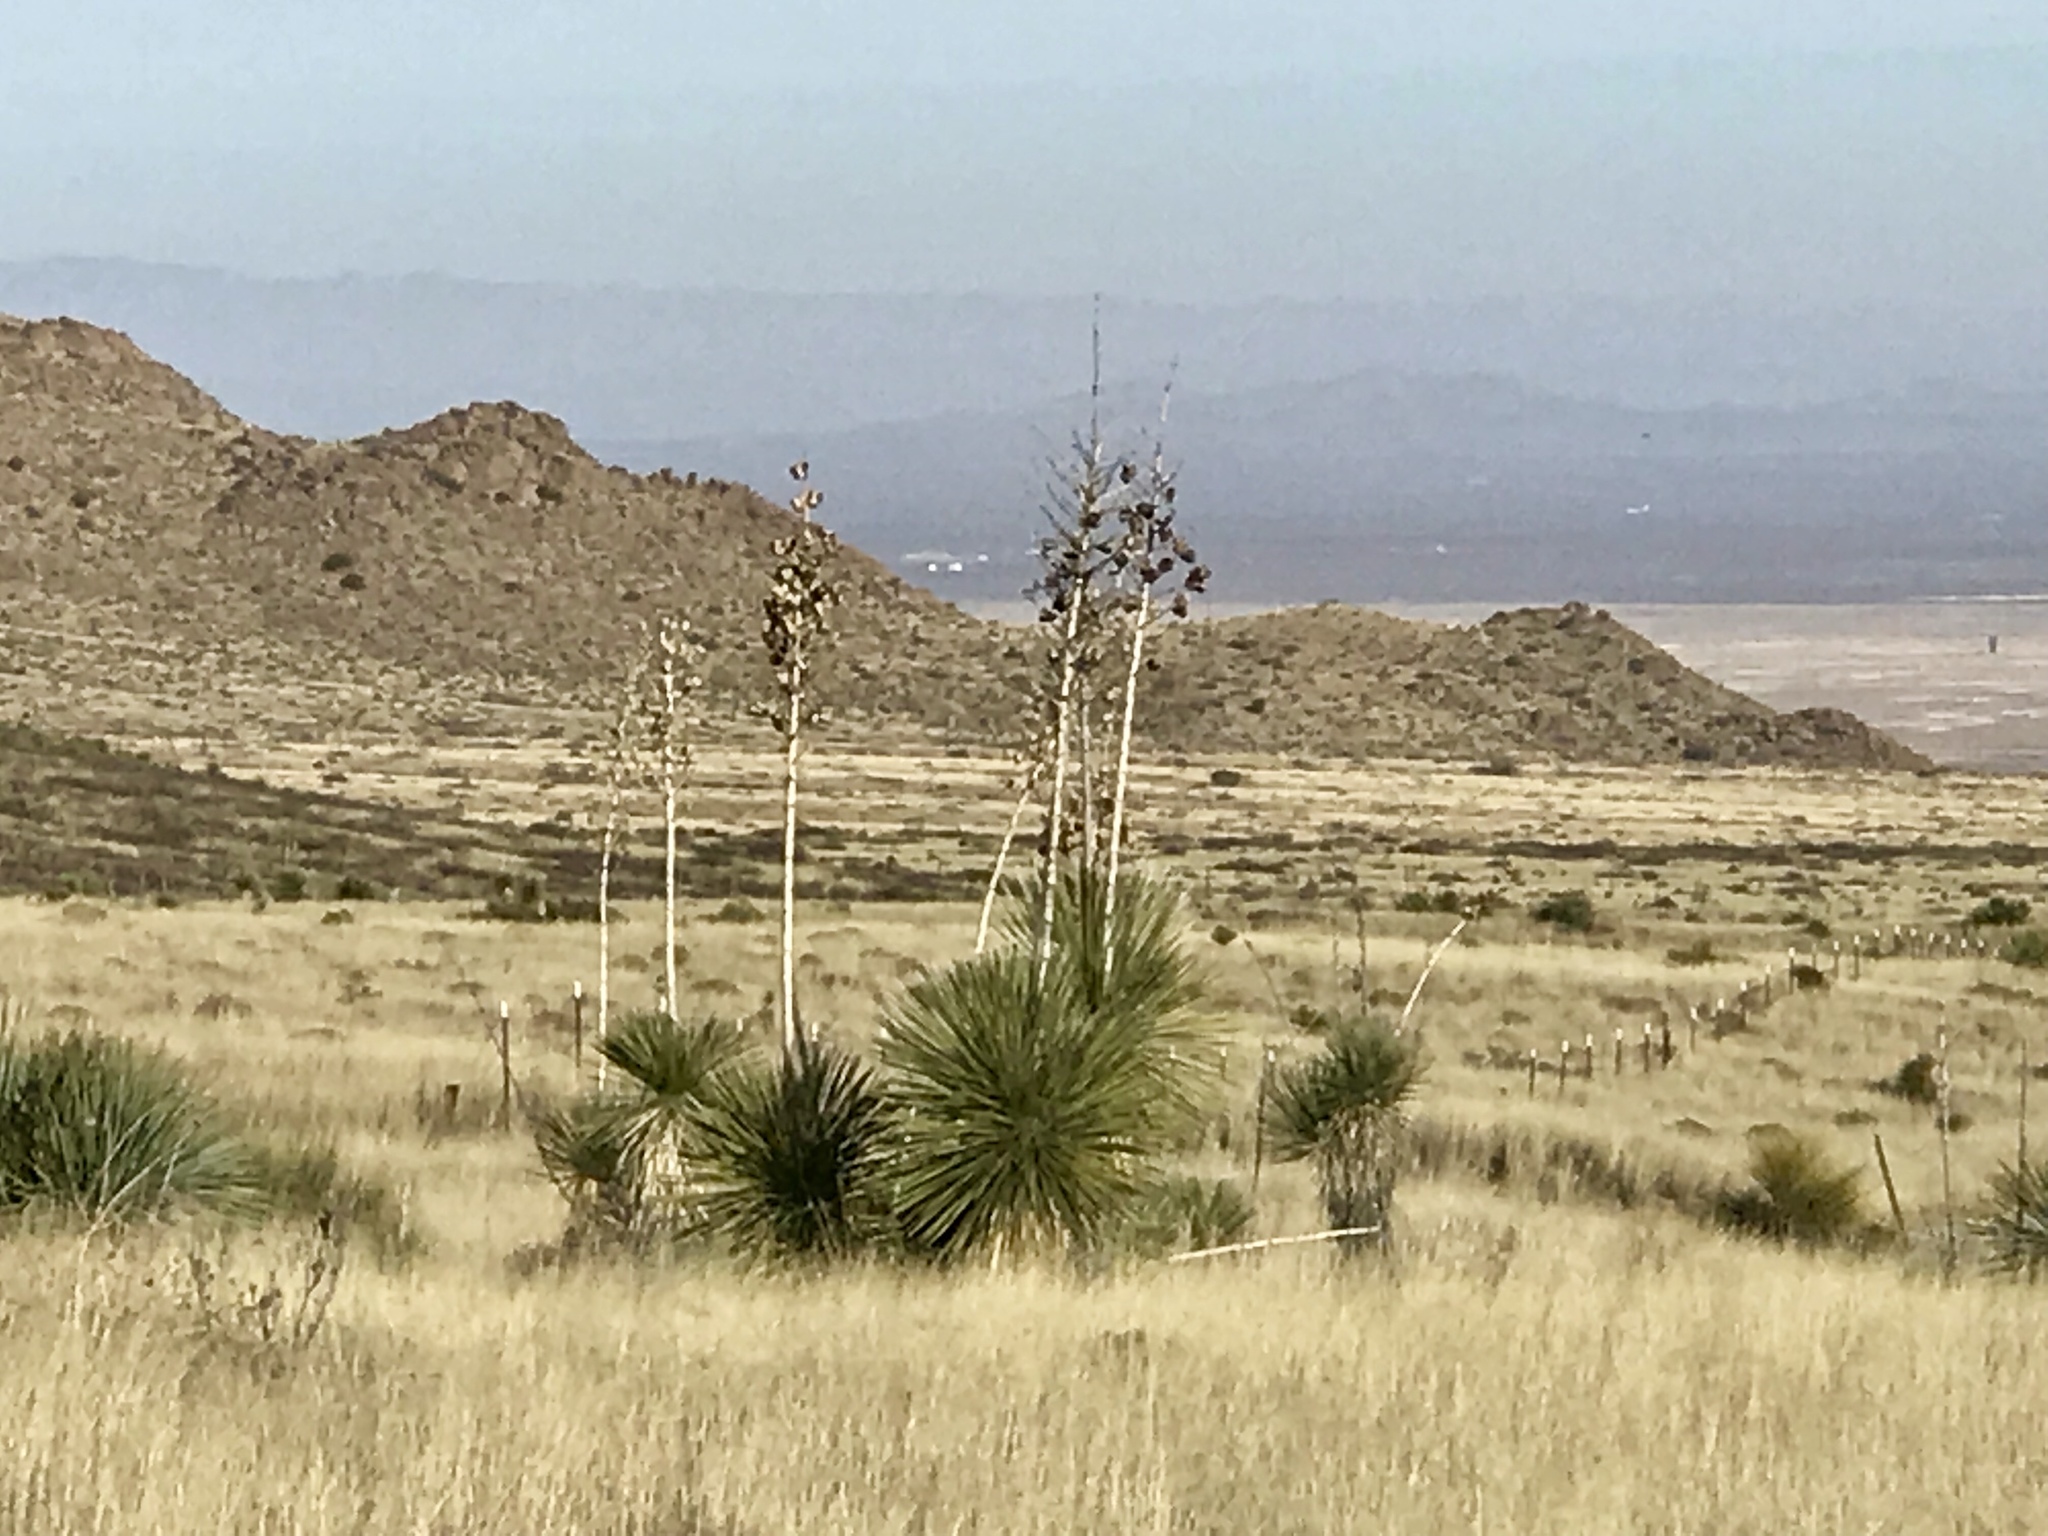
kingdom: Plantae
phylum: Tracheophyta
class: Liliopsida
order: Asparagales
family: Asparagaceae
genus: Yucca
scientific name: Yucca elata
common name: Palmella
